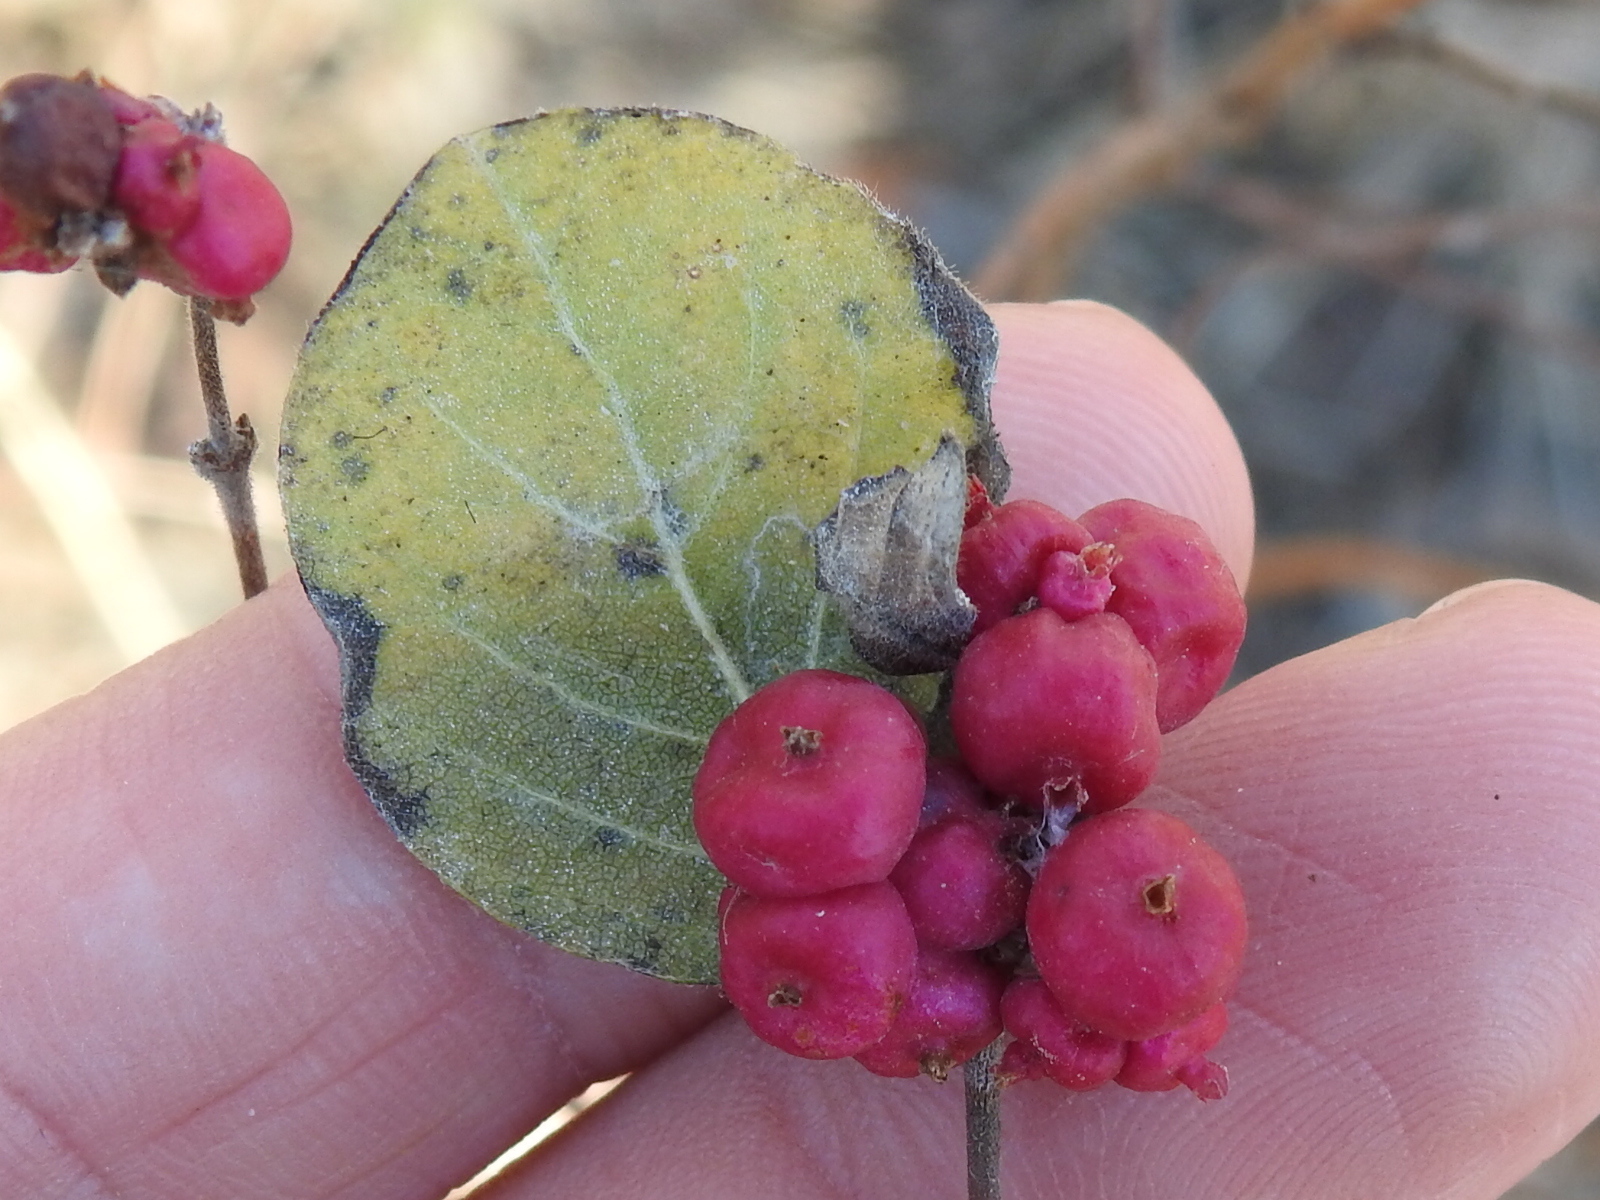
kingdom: Plantae
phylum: Tracheophyta
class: Magnoliopsida
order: Dipsacales
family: Caprifoliaceae
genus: Symphoricarpos
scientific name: Symphoricarpos orbiculatus
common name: Coralberry
